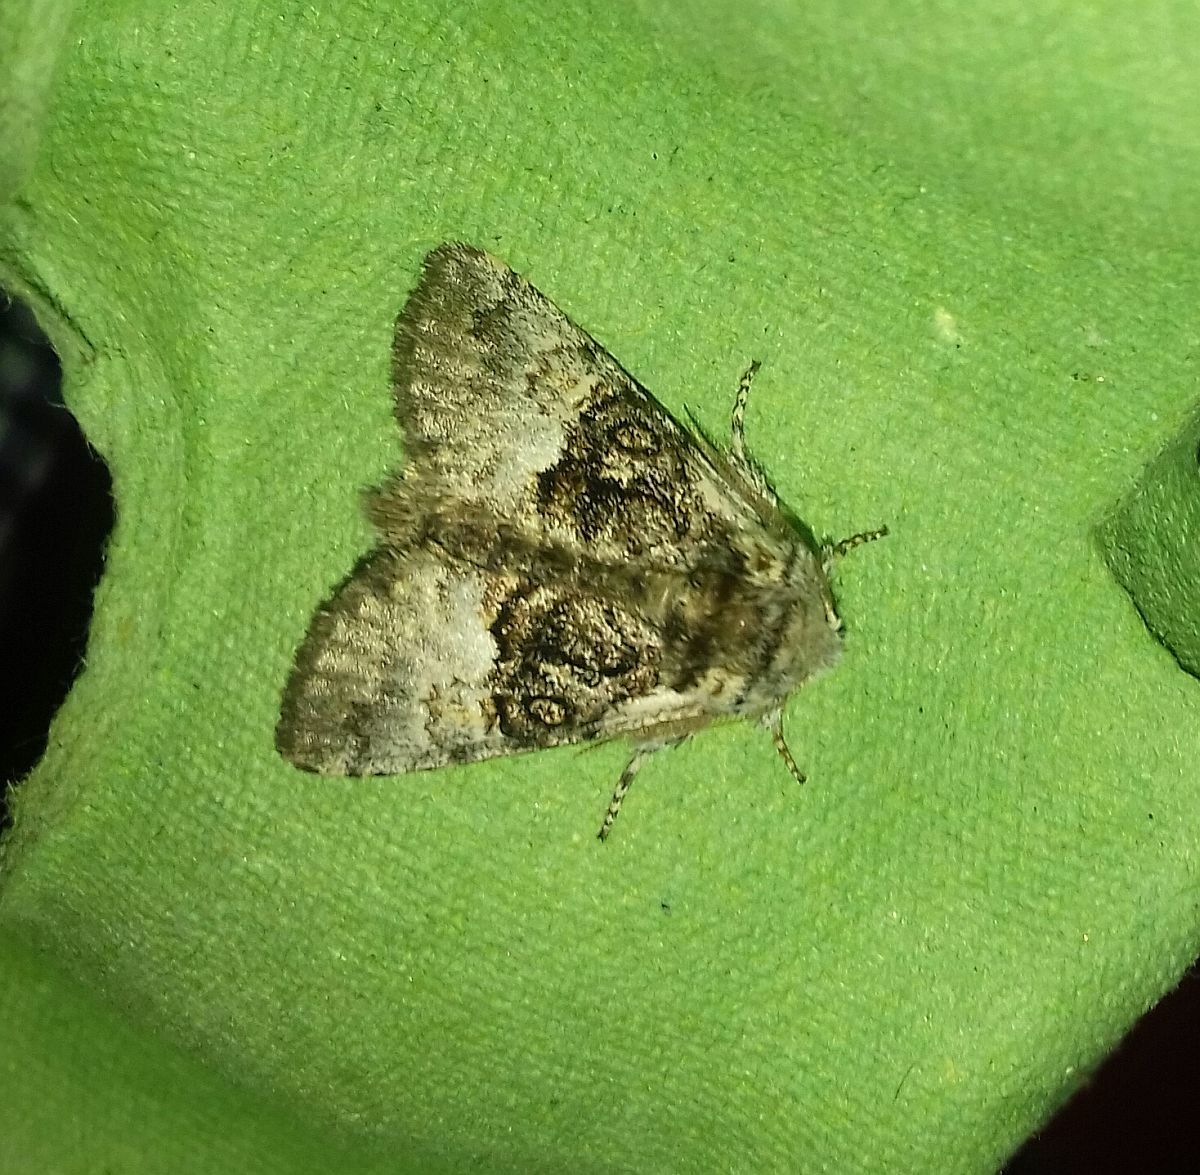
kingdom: Animalia
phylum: Arthropoda
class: Insecta
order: Lepidoptera
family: Noctuidae
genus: Colocasia
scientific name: Colocasia coryli
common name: Nut-tree tussock
